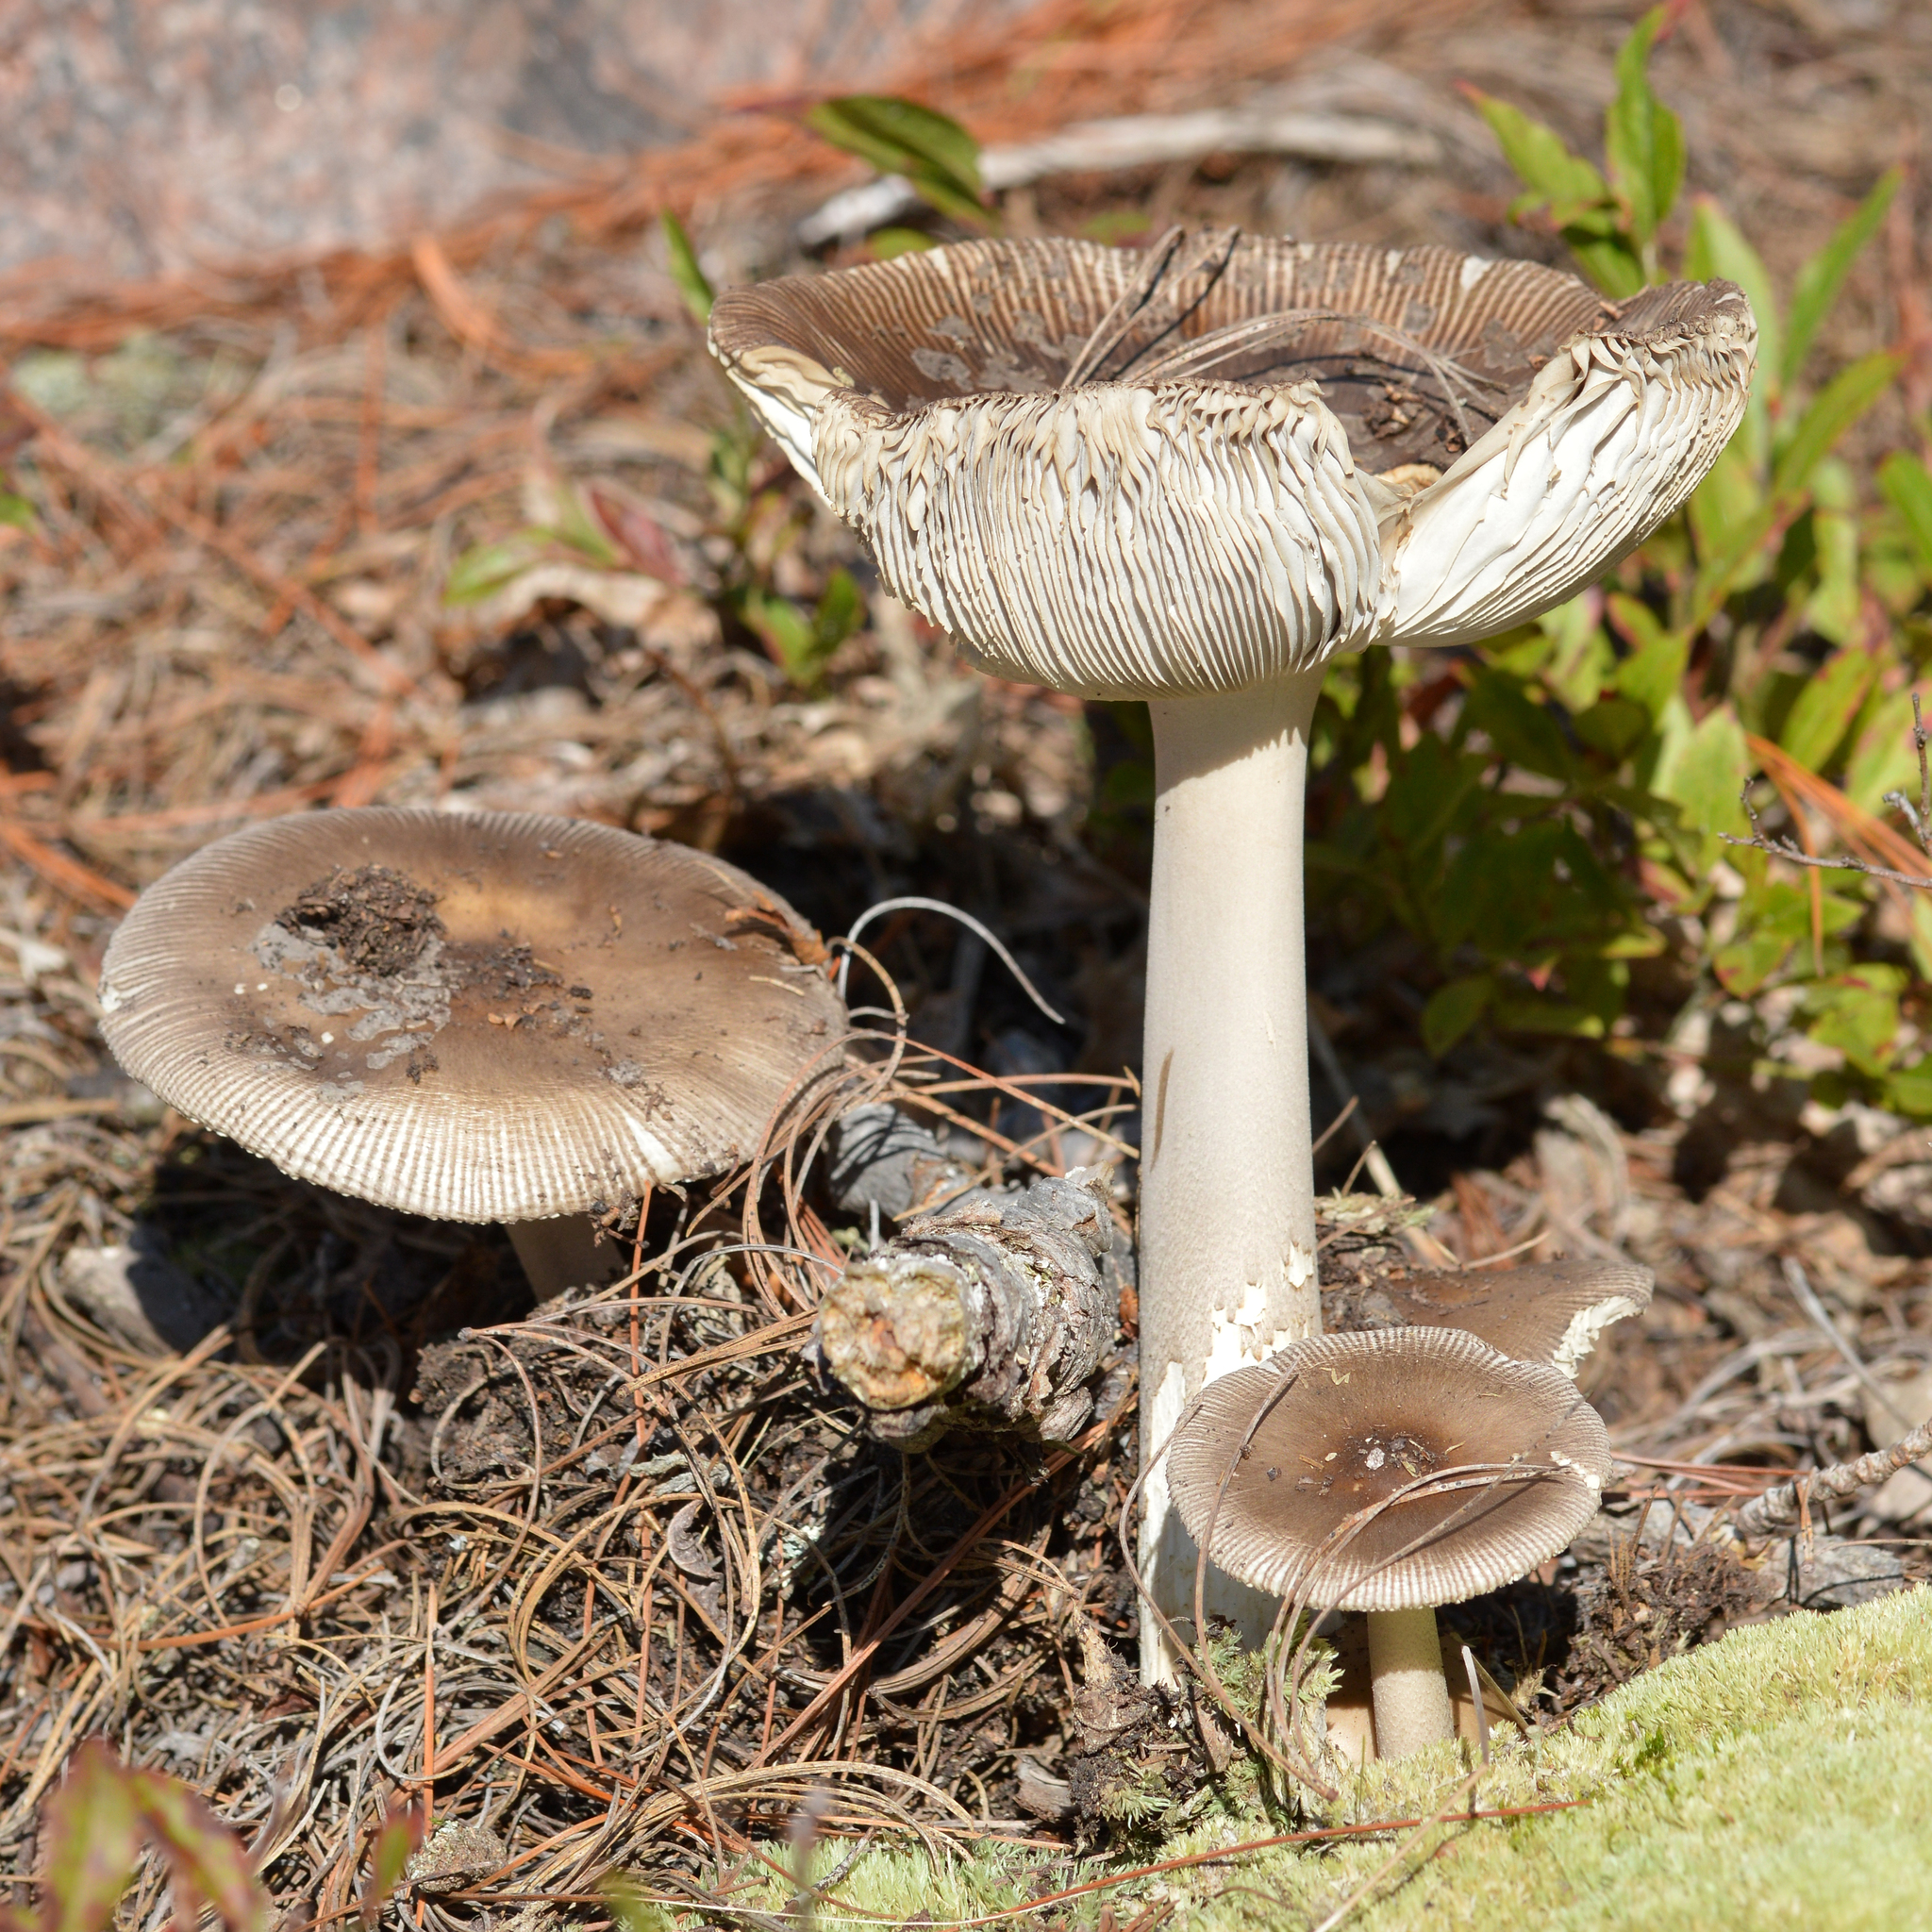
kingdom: Fungi
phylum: Basidiomycota
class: Agaricomycetes
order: Agaricales
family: Amanitaceae
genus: Amanita
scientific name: Amanita vaginata
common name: Grisette
